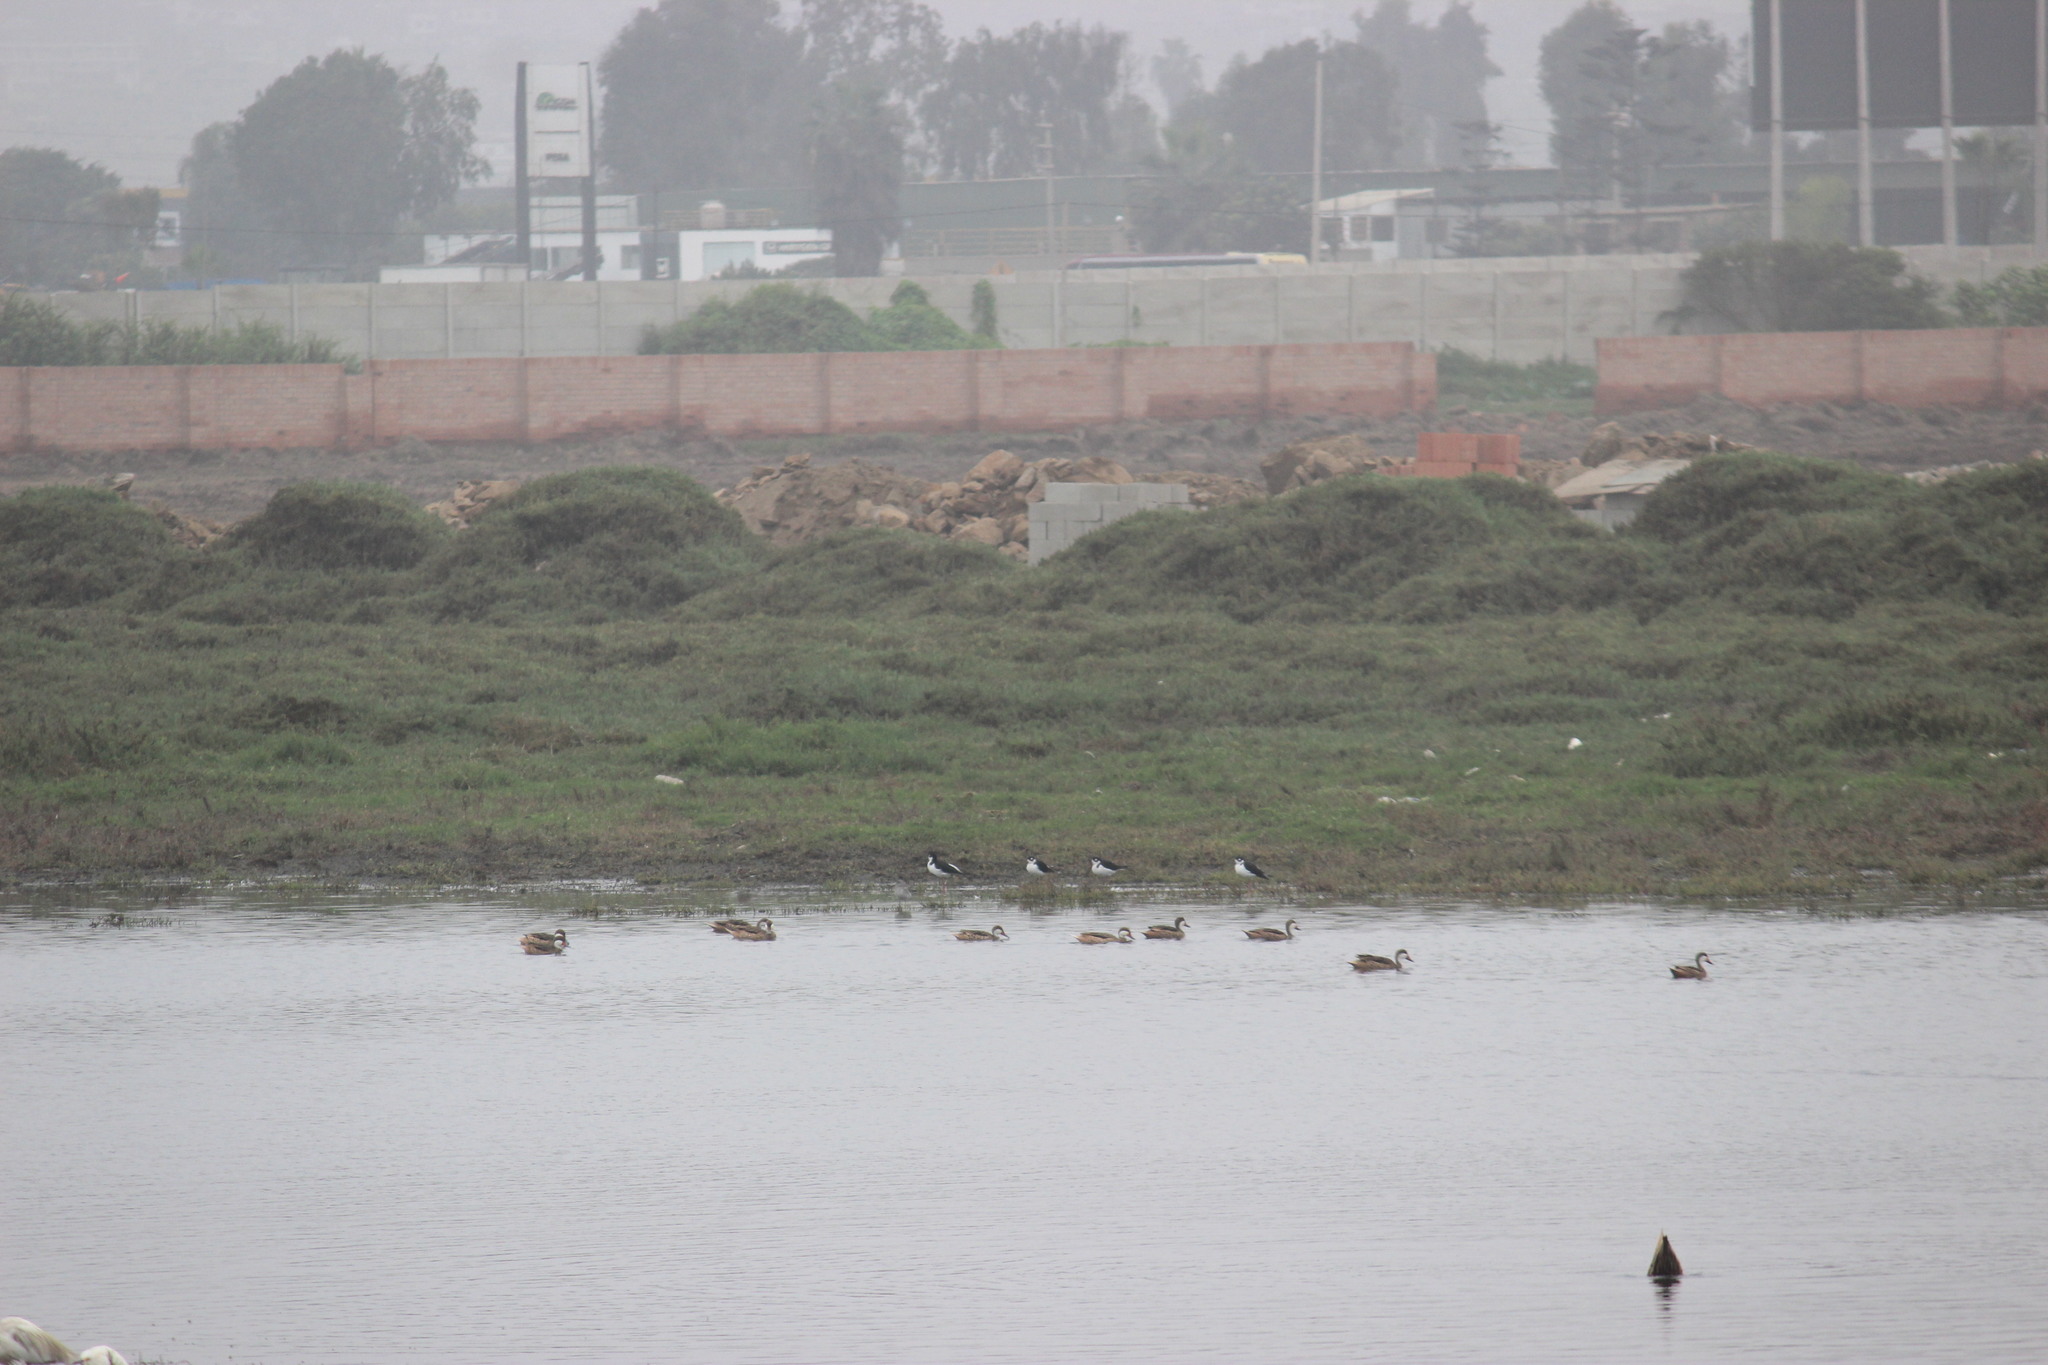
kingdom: Animalia
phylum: Chordata
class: Aves
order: Charadriiformes
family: Recurvirostridae
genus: Himantopus
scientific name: Himantopus mexicanus
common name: Black-necked stilt
